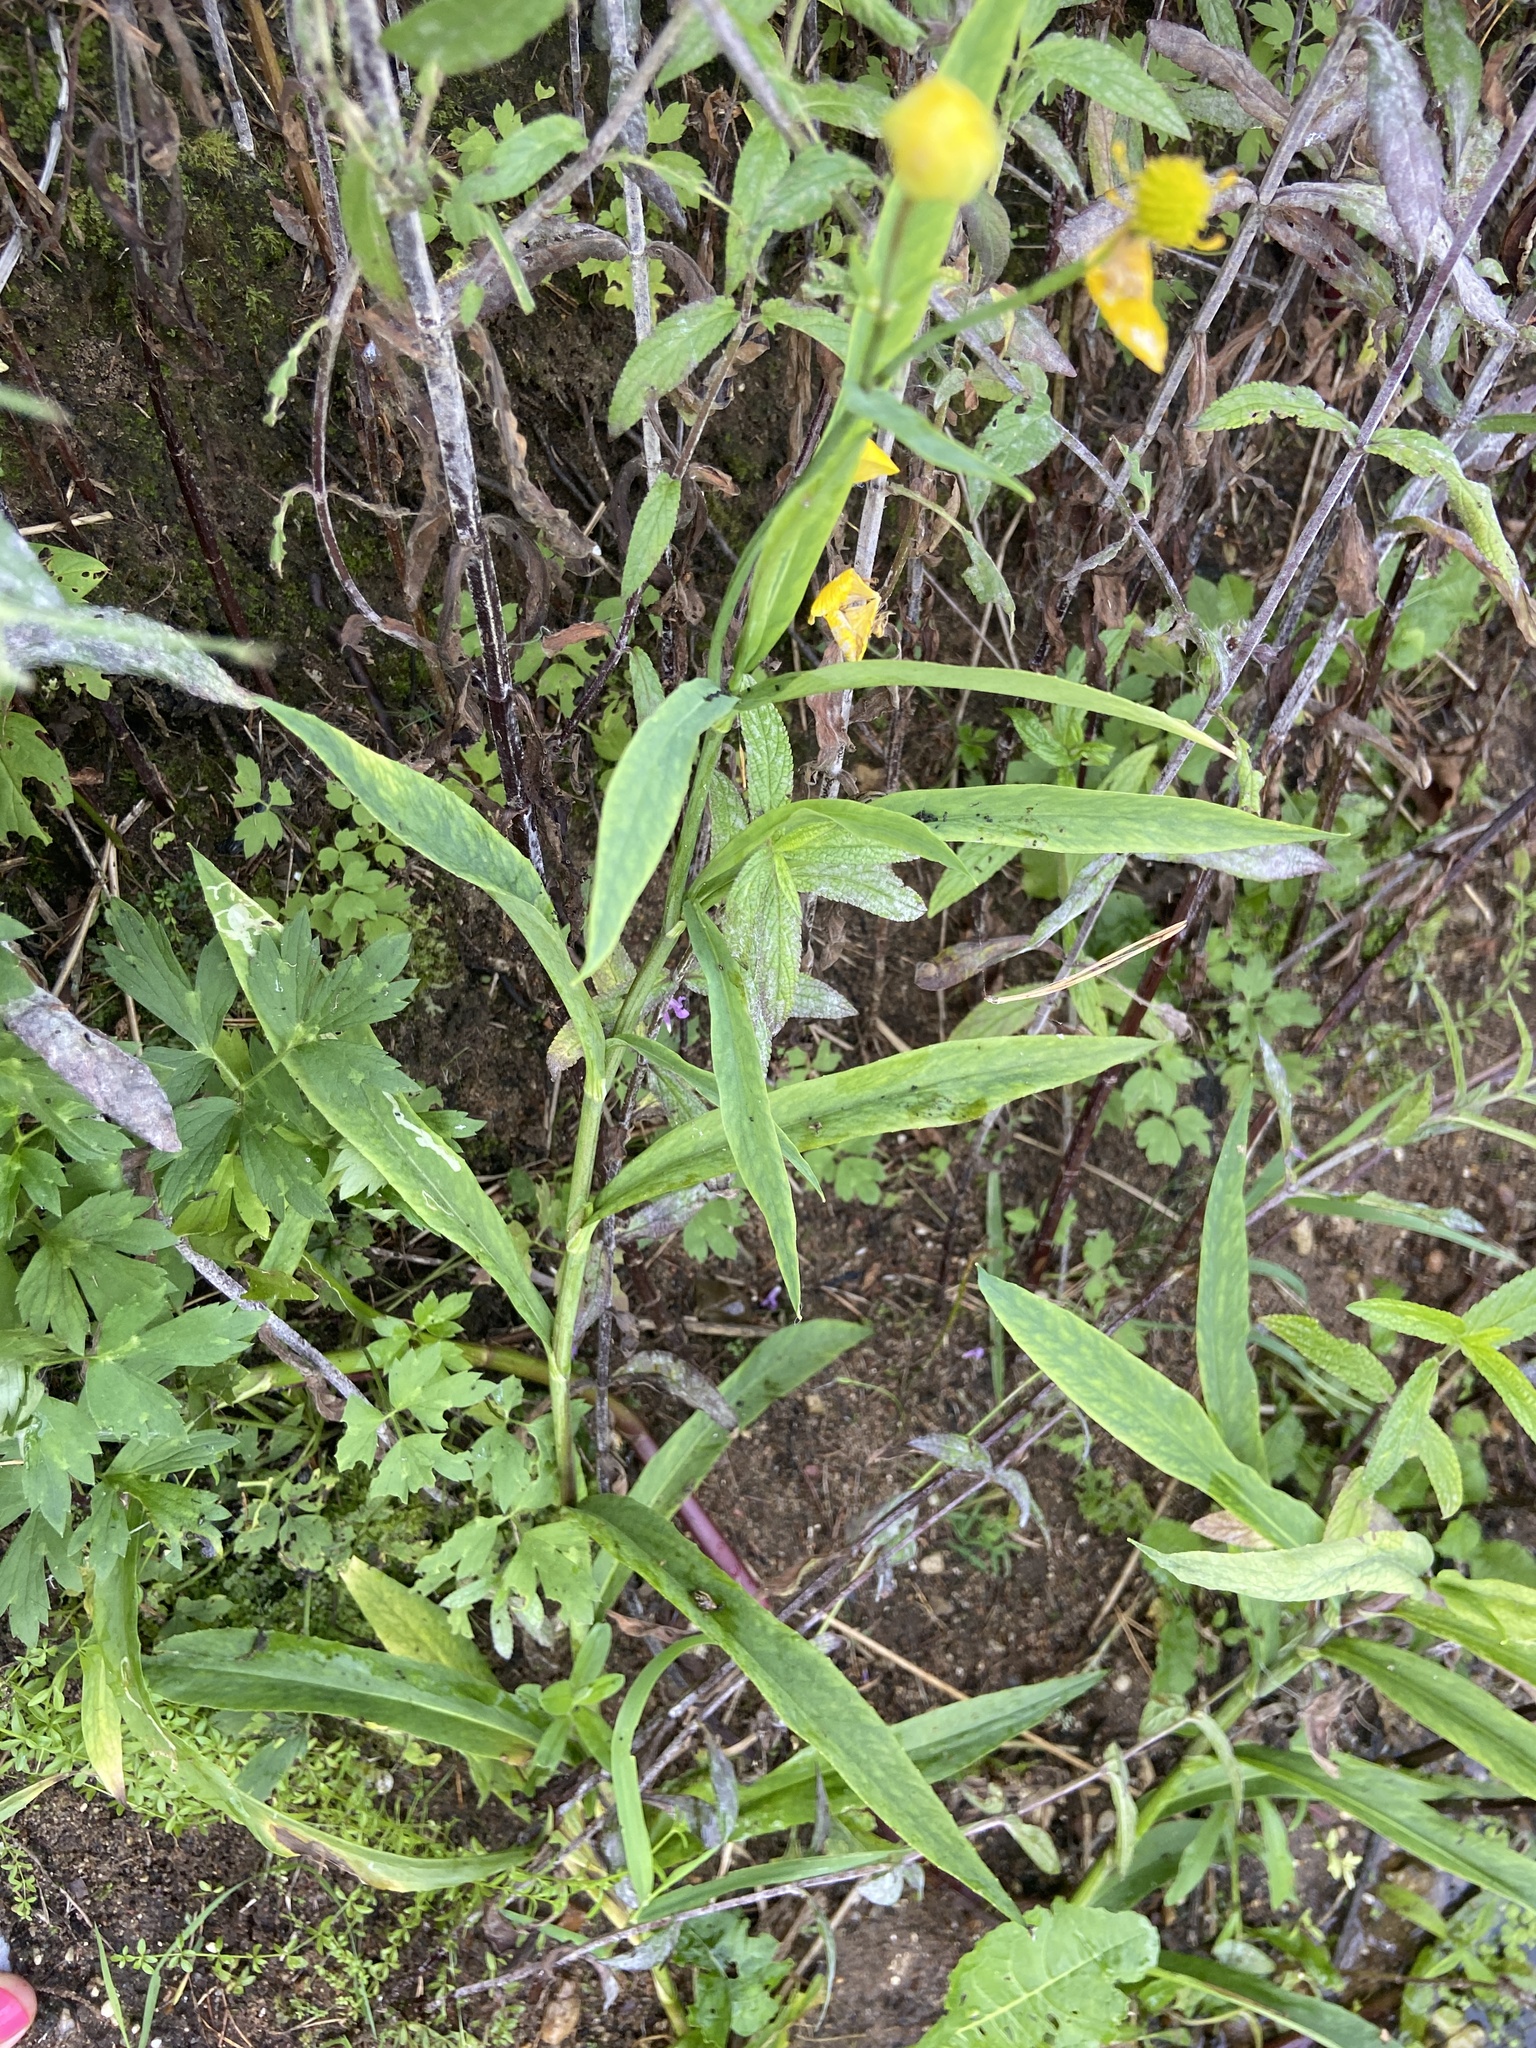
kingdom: Plantae
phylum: Tracheophyta
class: Magnoliopsida
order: Ranunculales
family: Ranunculaceae
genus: Ranunculus
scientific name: Ranunculus lingua
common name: Greater spearwort
